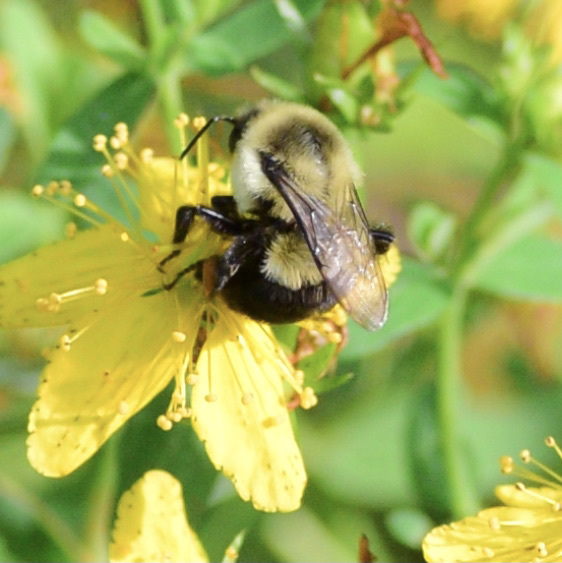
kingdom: Animalia
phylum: Arthropoda
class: Insecta
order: Hymenoptera
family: Apidae
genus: Bombus
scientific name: Bombus impatiens
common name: Common eastern bumble bee
